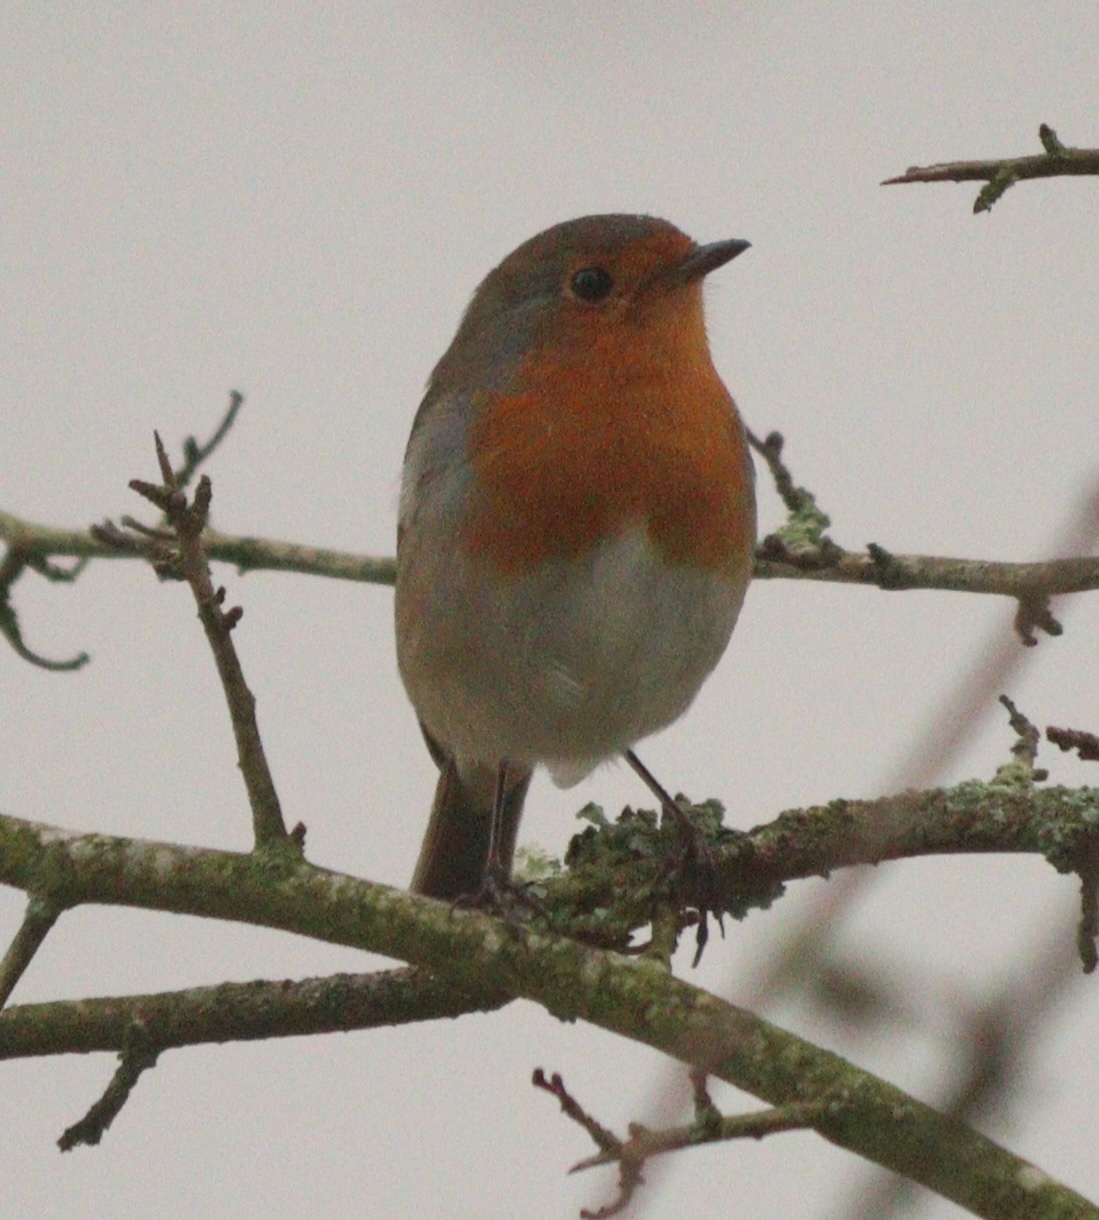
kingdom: Animalia
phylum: Chordata
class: Aves
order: Passeriformes
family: Muscicapidae
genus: Erithacus
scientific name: Erithacus rubecula
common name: European robin
